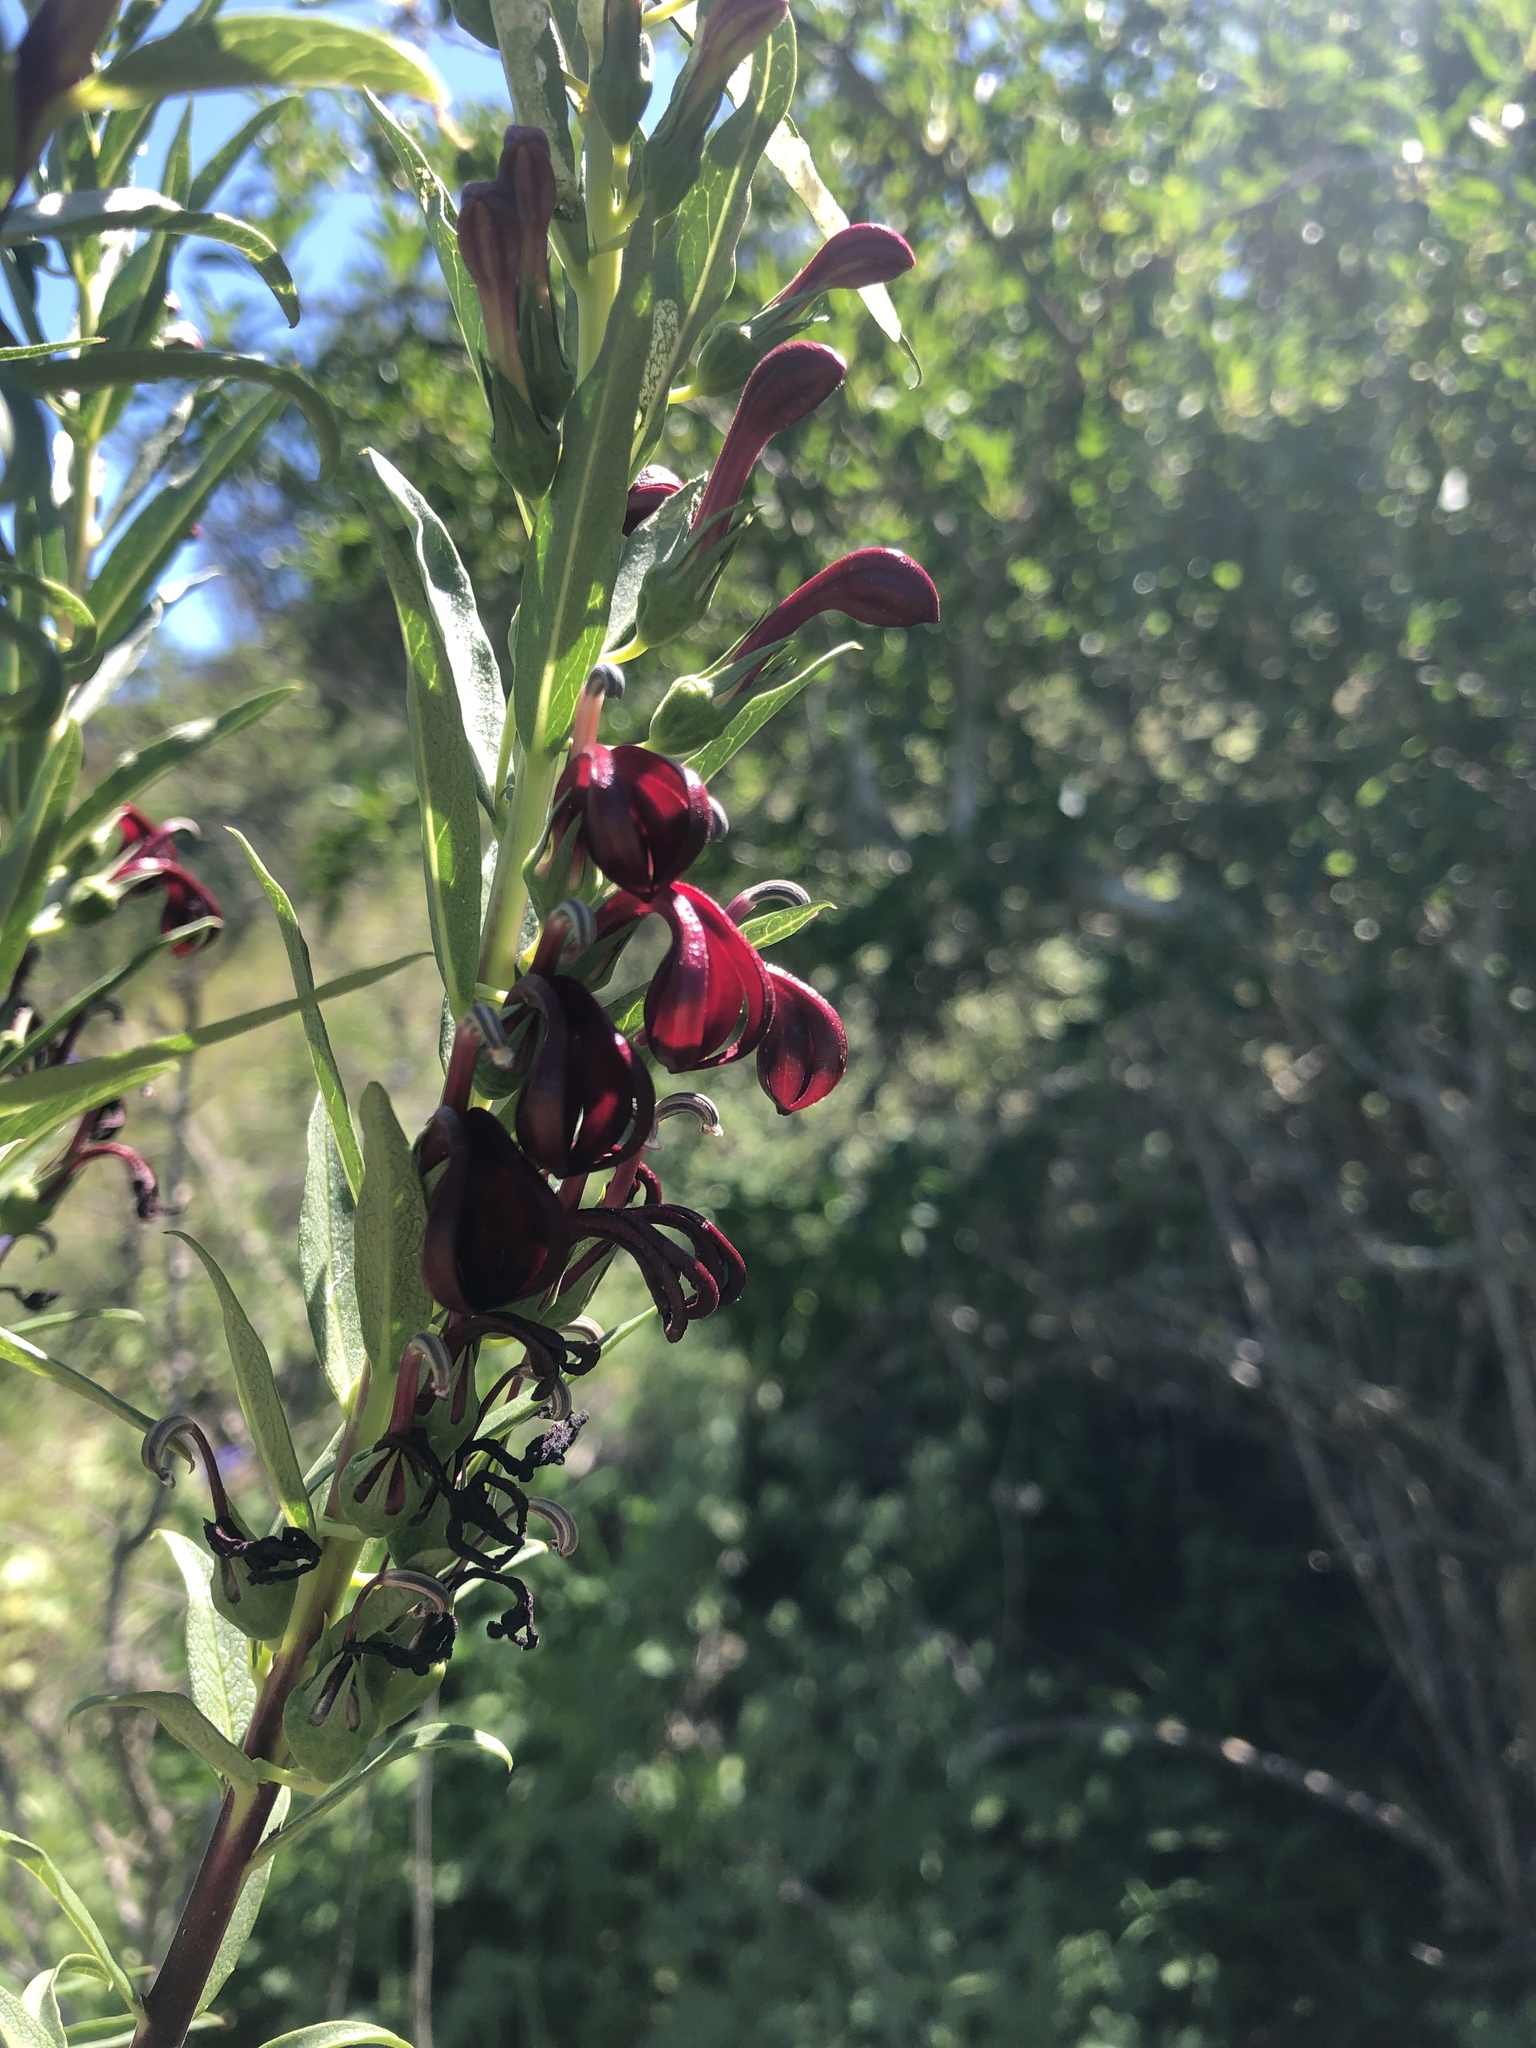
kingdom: Plantae
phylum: Tracheophyta
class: Magnoliopsida
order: Asterales
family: Campanulaceae
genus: Lobelia
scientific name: Lobelia polyphylla
